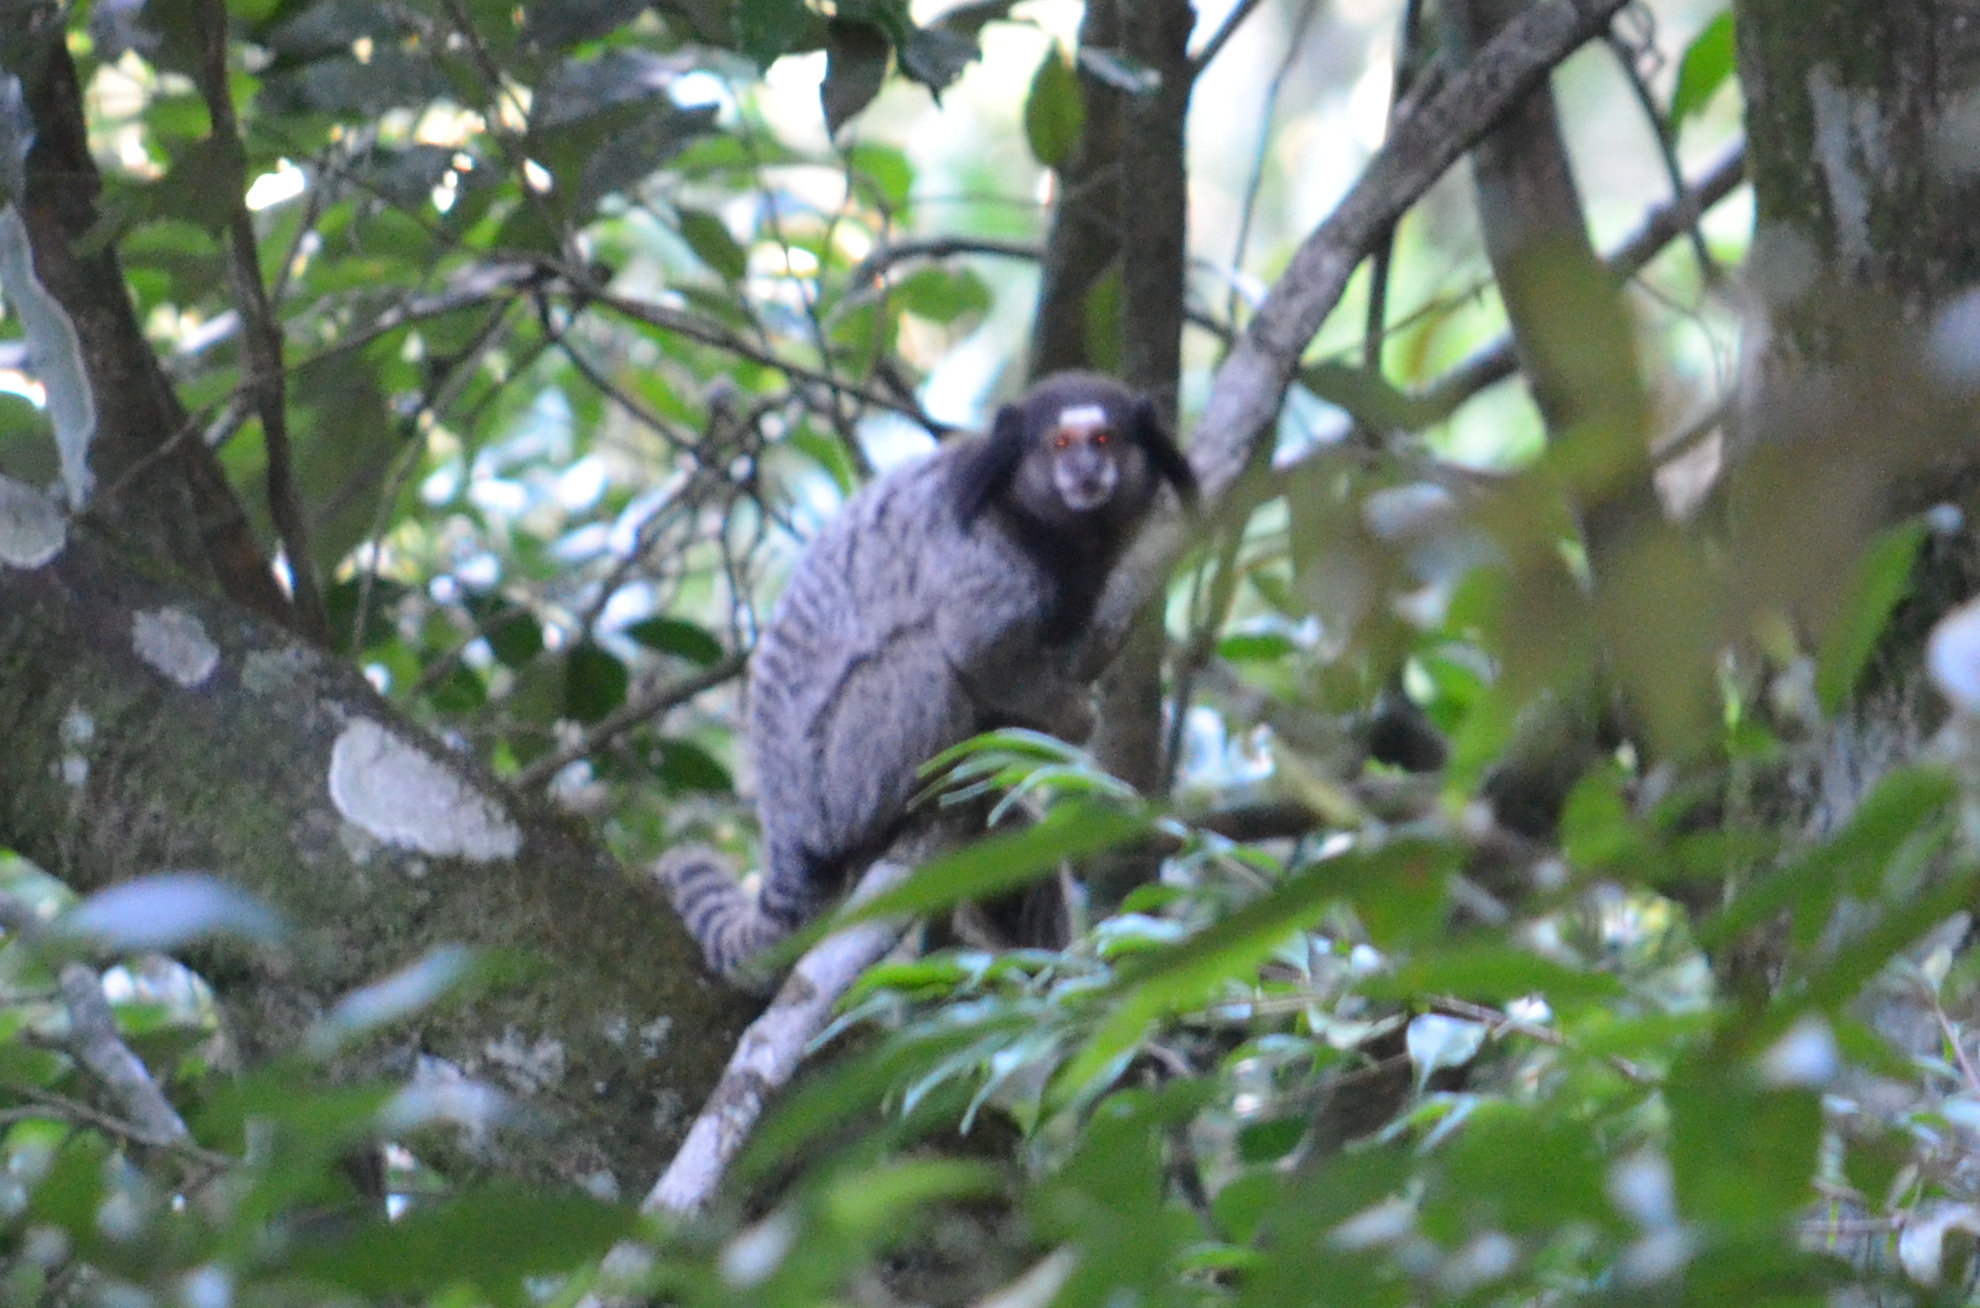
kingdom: Animalia
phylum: Chordata
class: Mammalia
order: Primates
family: Callitrichidae
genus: Callithrix
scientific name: Callithrix penicillata
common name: Black-tufted marmoset
